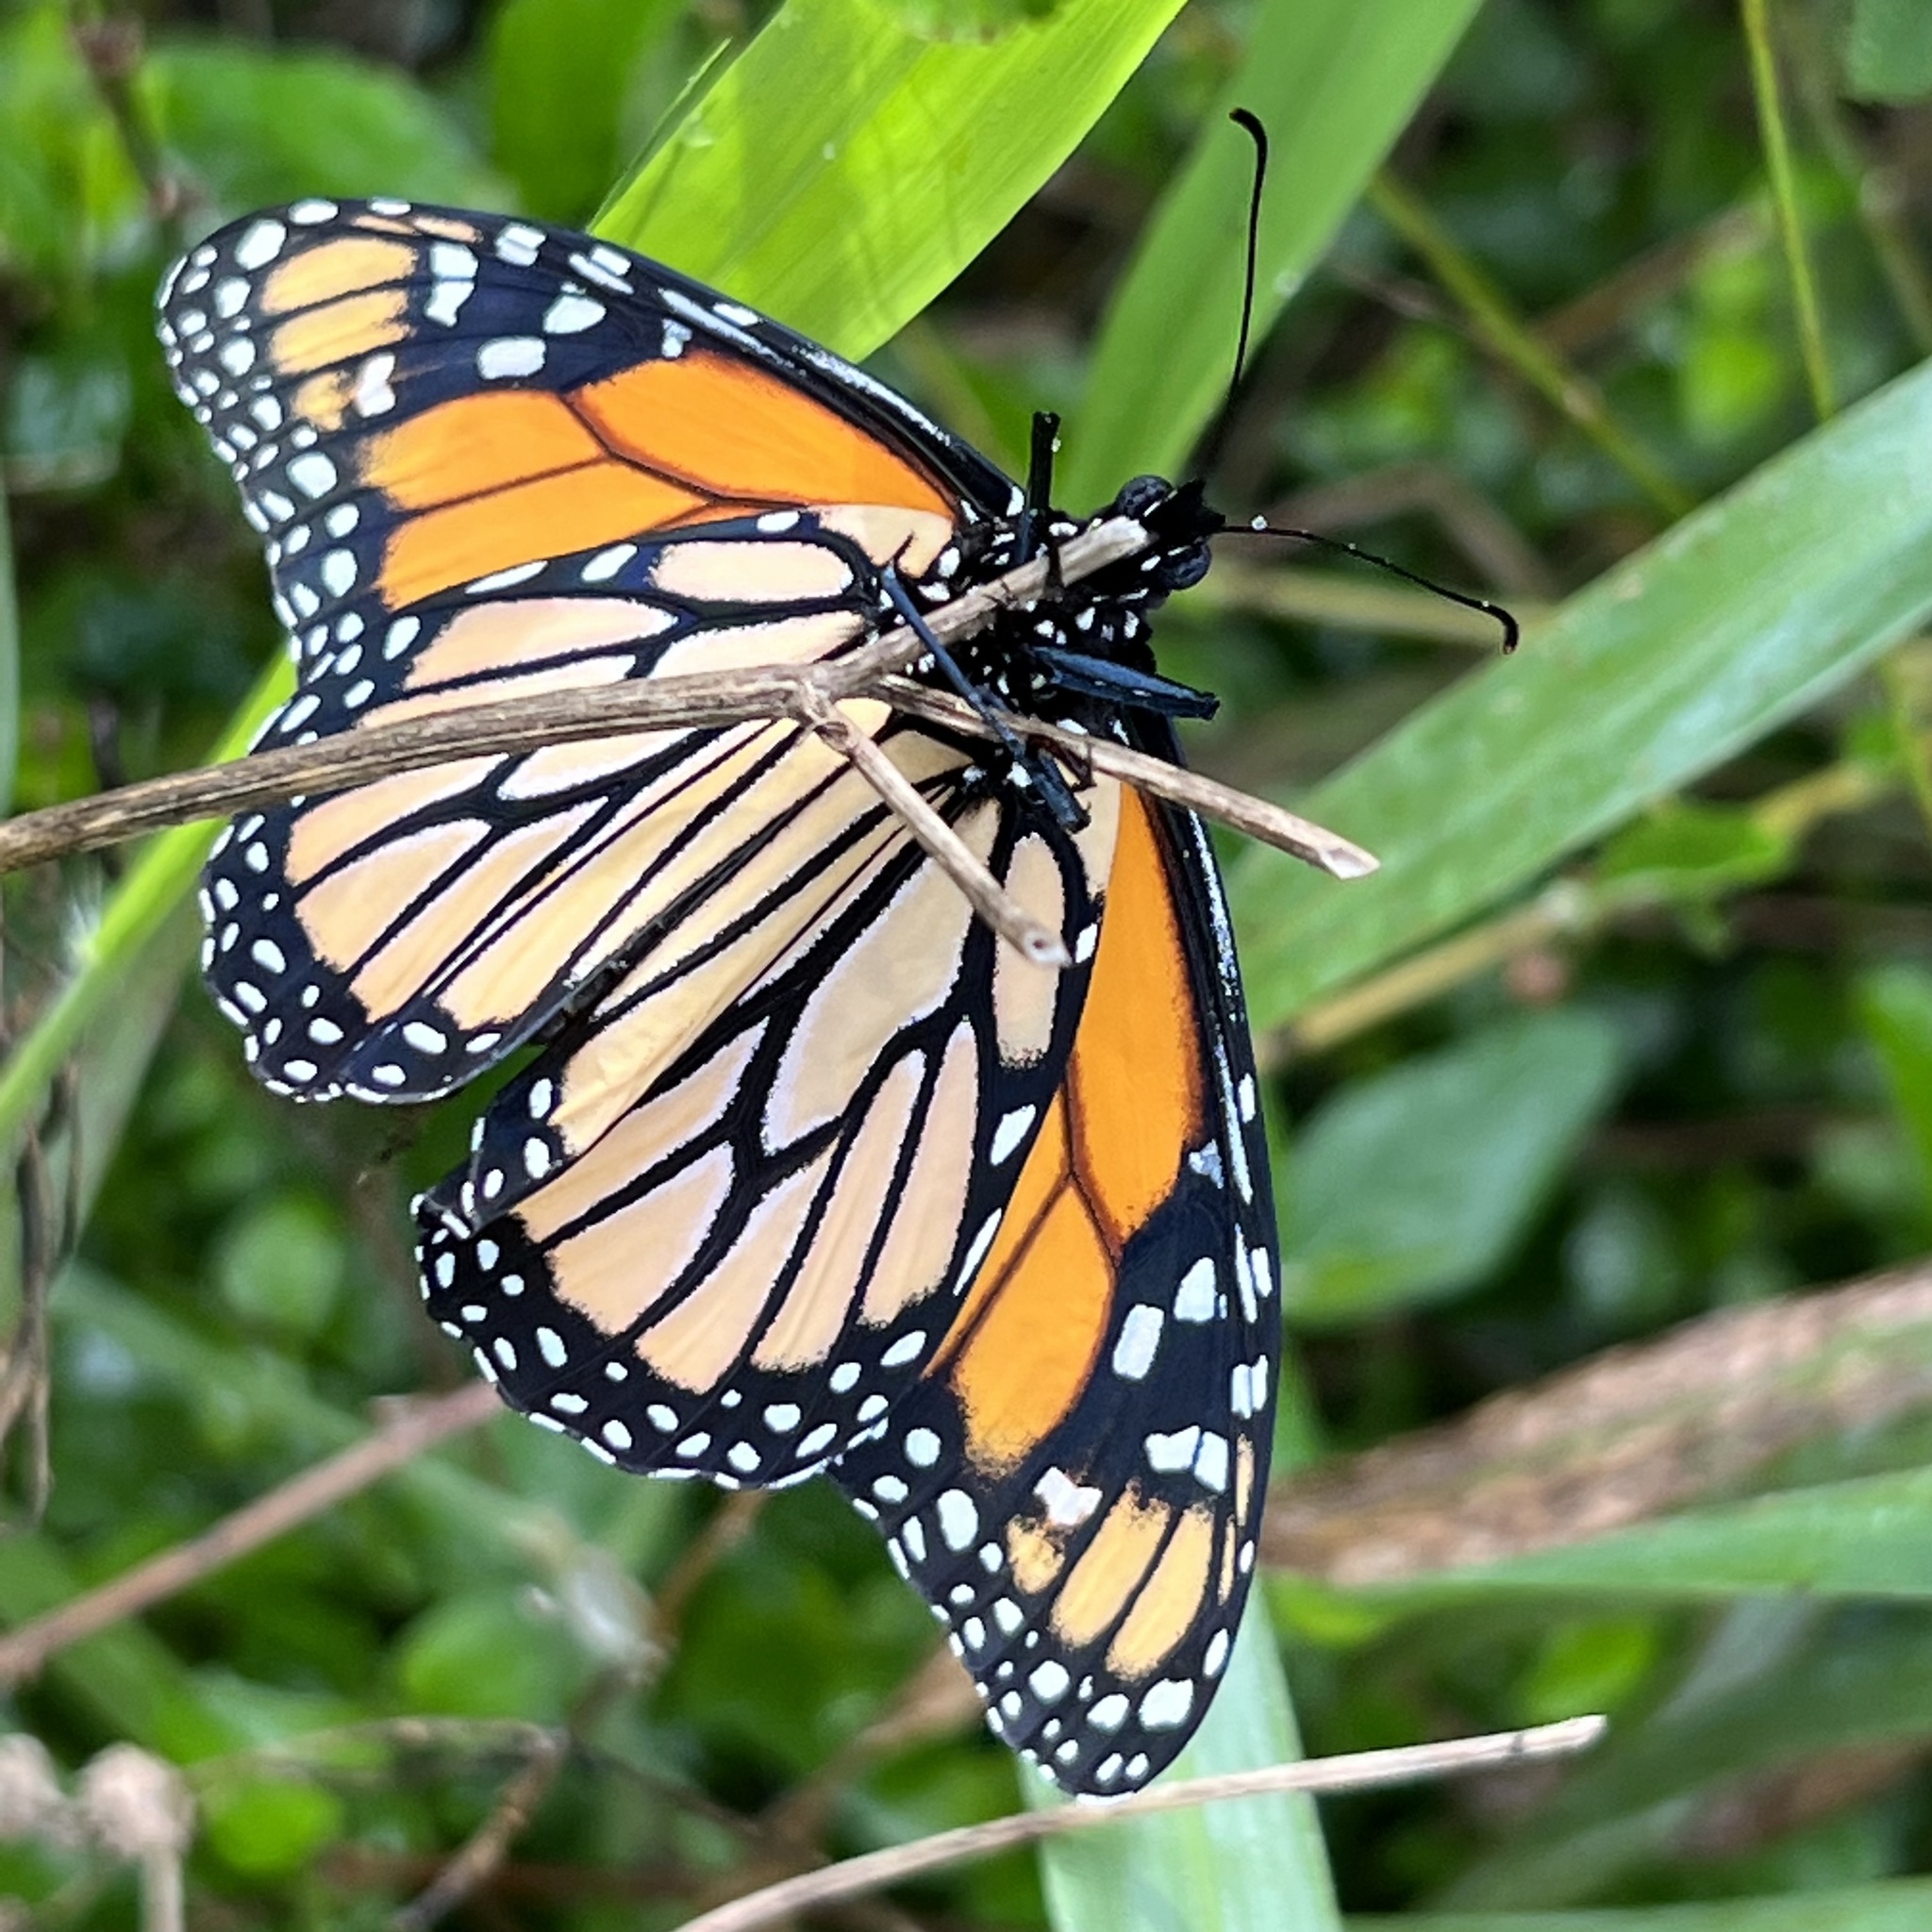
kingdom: Animalia
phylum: Arthropoda
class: Insecta
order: Lepidoptera
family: Nymphalidae
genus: Danaus
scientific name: Danaus plexippus
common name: Monarch
